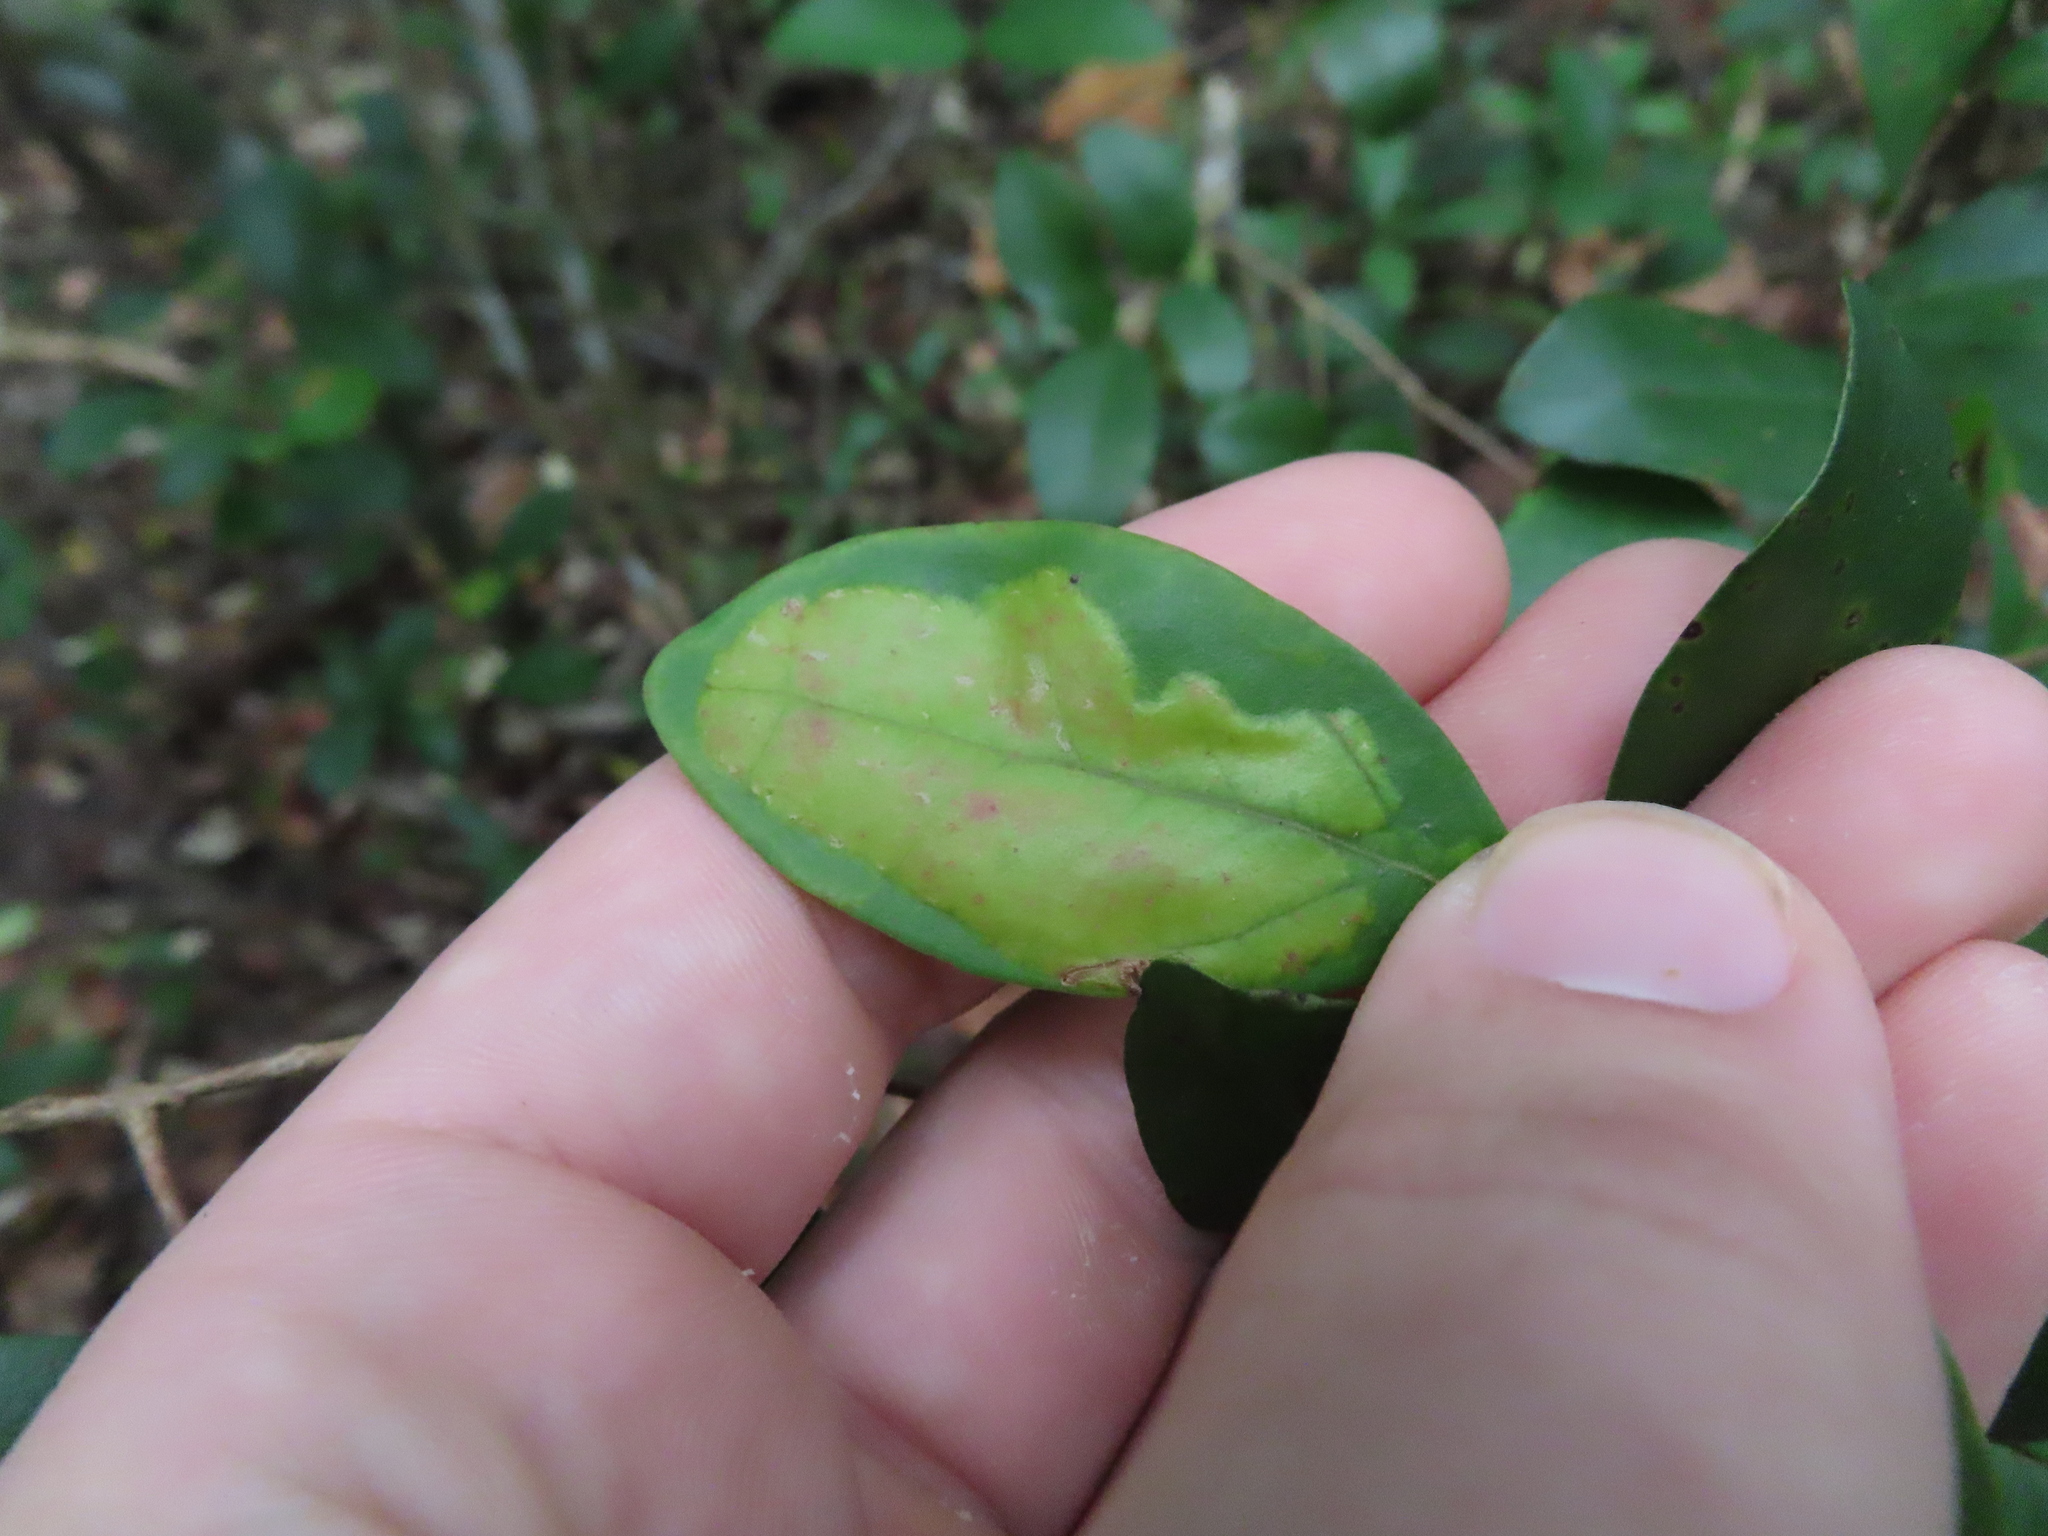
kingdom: Animalia
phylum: Arthropoda
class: Insecta
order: Lepidoptera
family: Gracillariidae
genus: Chilocampyla
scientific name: Chilocampyla dyariella
